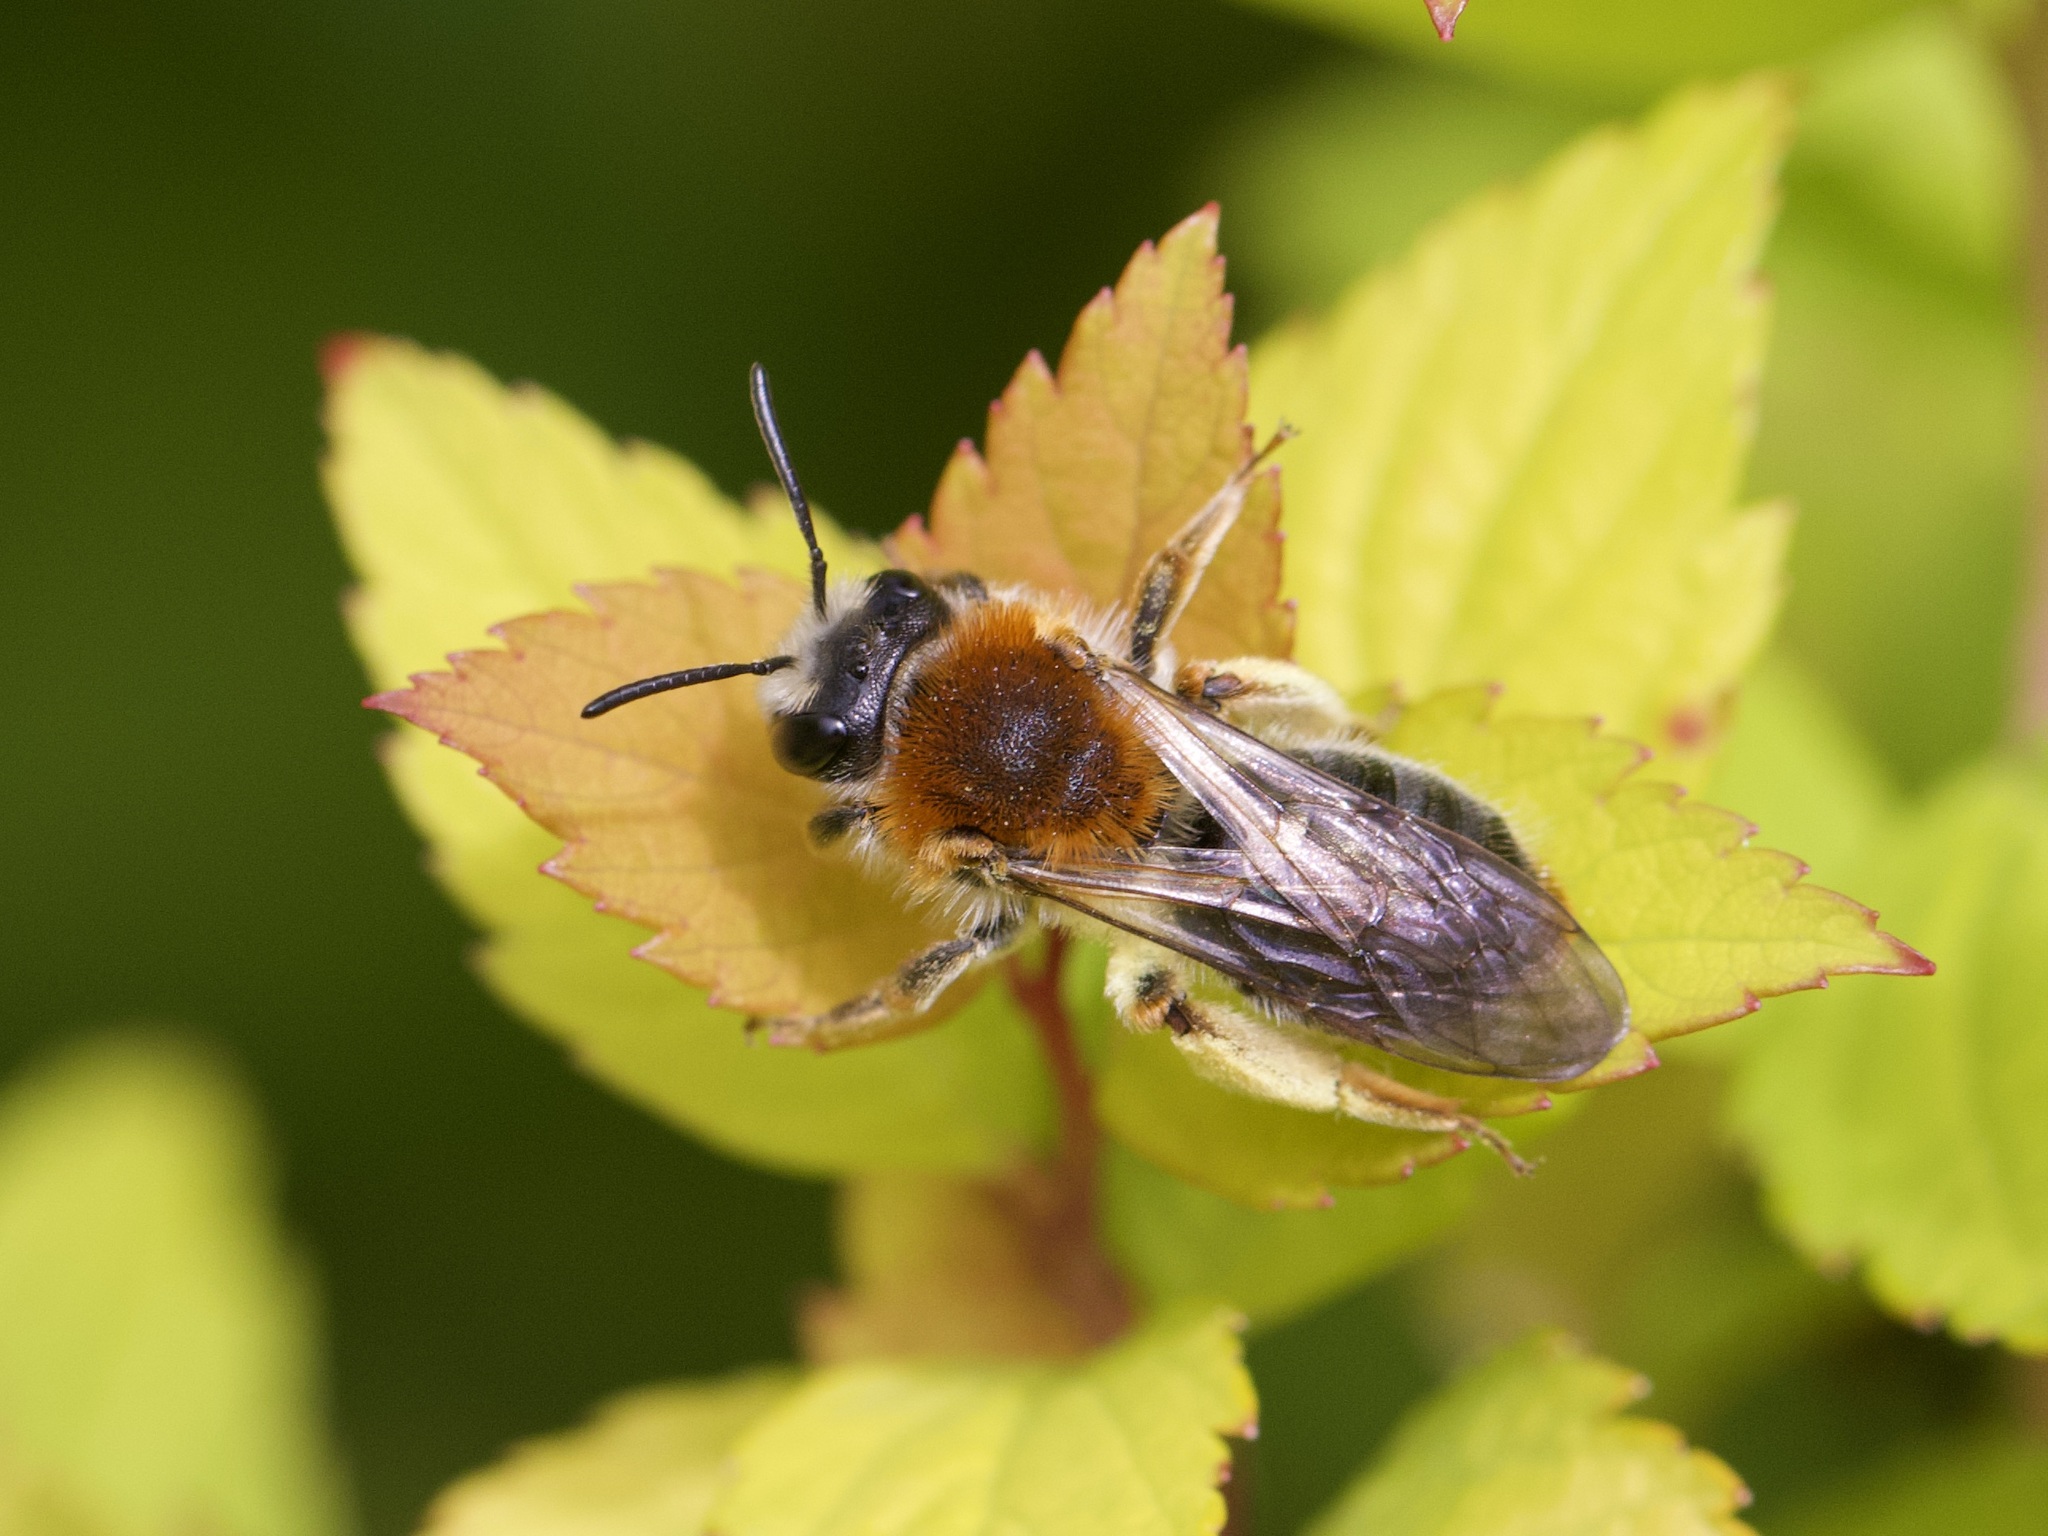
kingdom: Animalia
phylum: Arthropoda
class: Insecta
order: Hymenoptera
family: Andrenidae
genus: Andrena
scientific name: Andrena haemorrhoa
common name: Early mining bee
